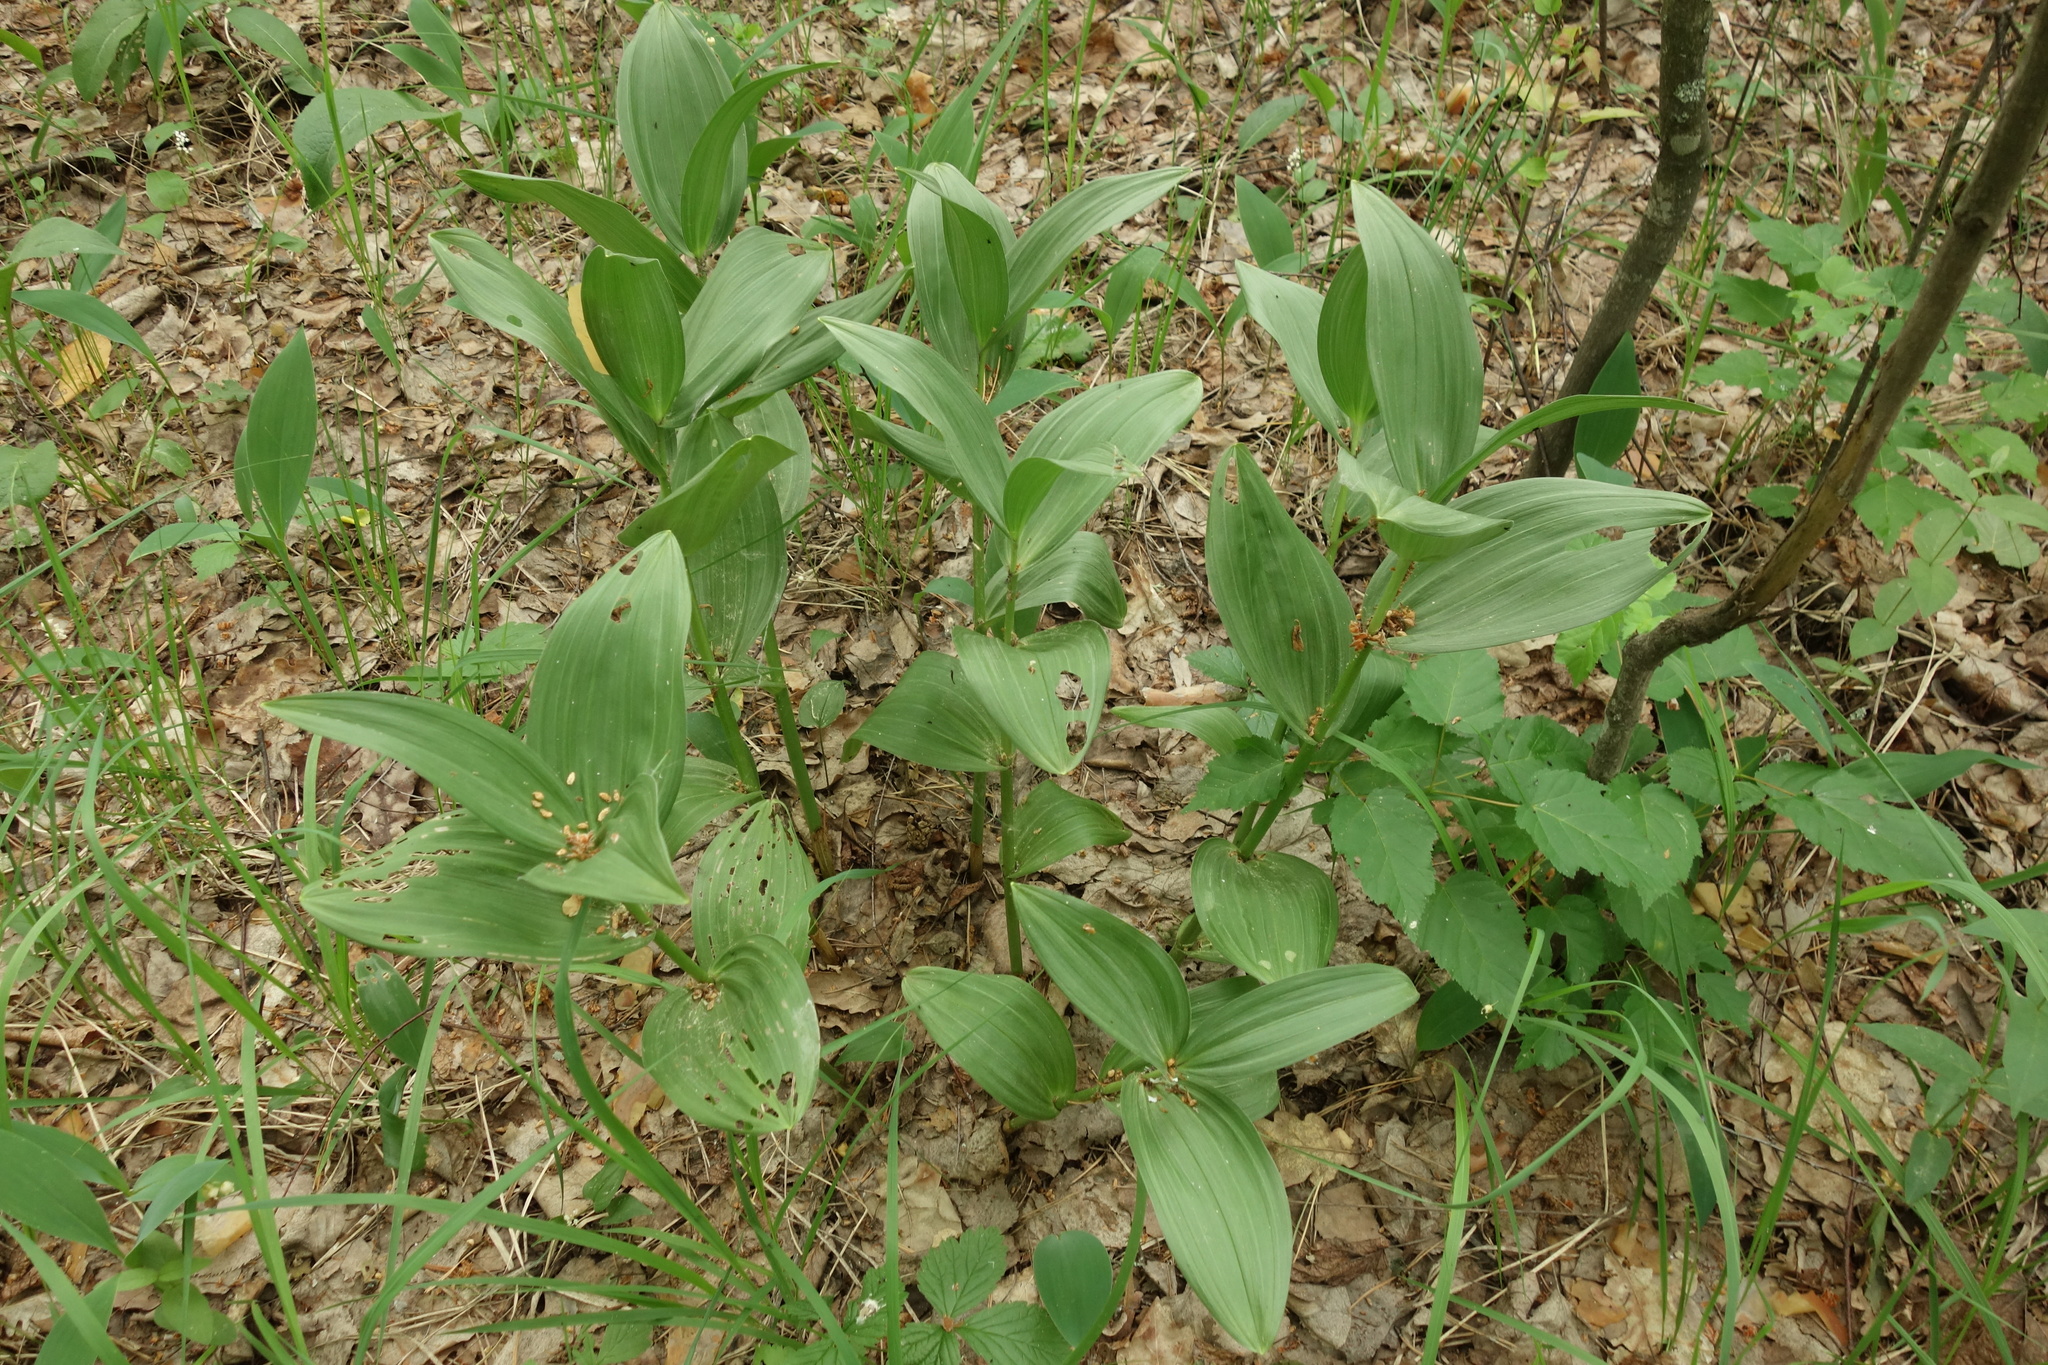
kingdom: Plantae
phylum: Tracheophyta
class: Liliopsida
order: Liliales
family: Melanthiaceae
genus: Veratrum
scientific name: Veratrum lobelianum
